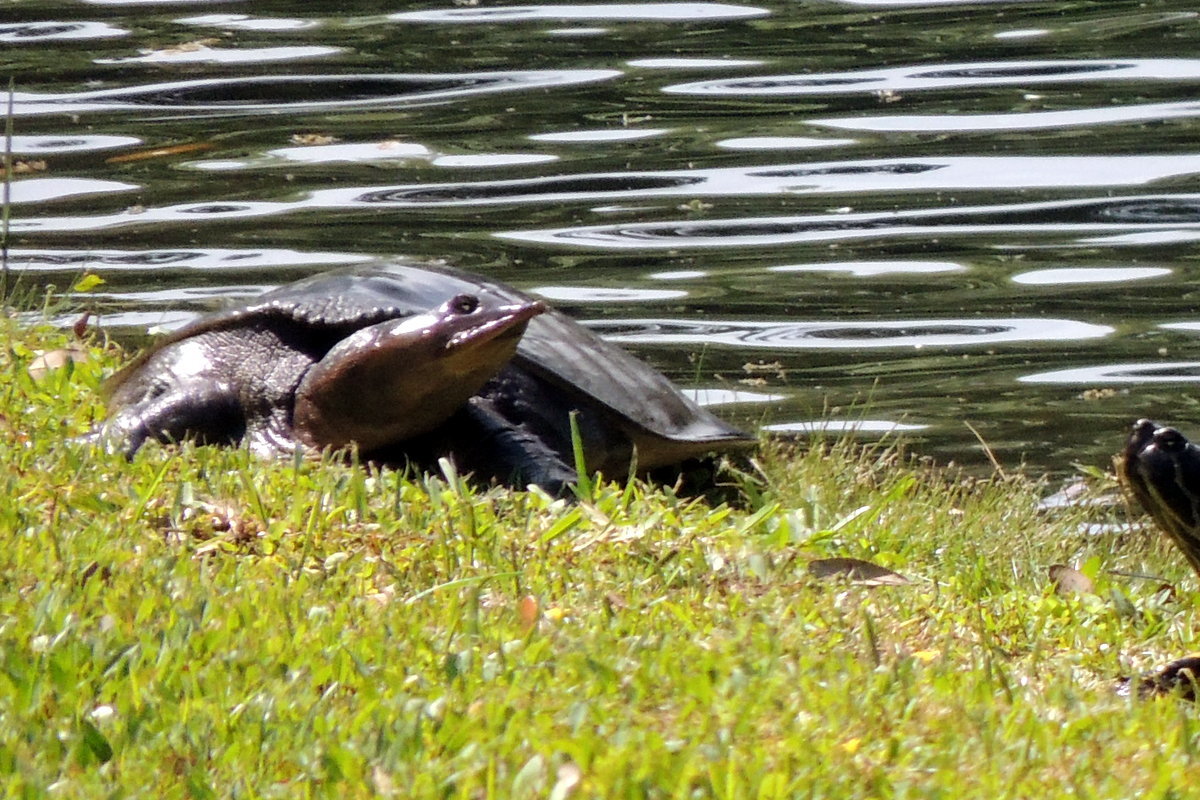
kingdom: Animalia
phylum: Chordata
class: Testudines
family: Trionychidae
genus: Apalone
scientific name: Apalone ferox
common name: Florida softshell turtle
